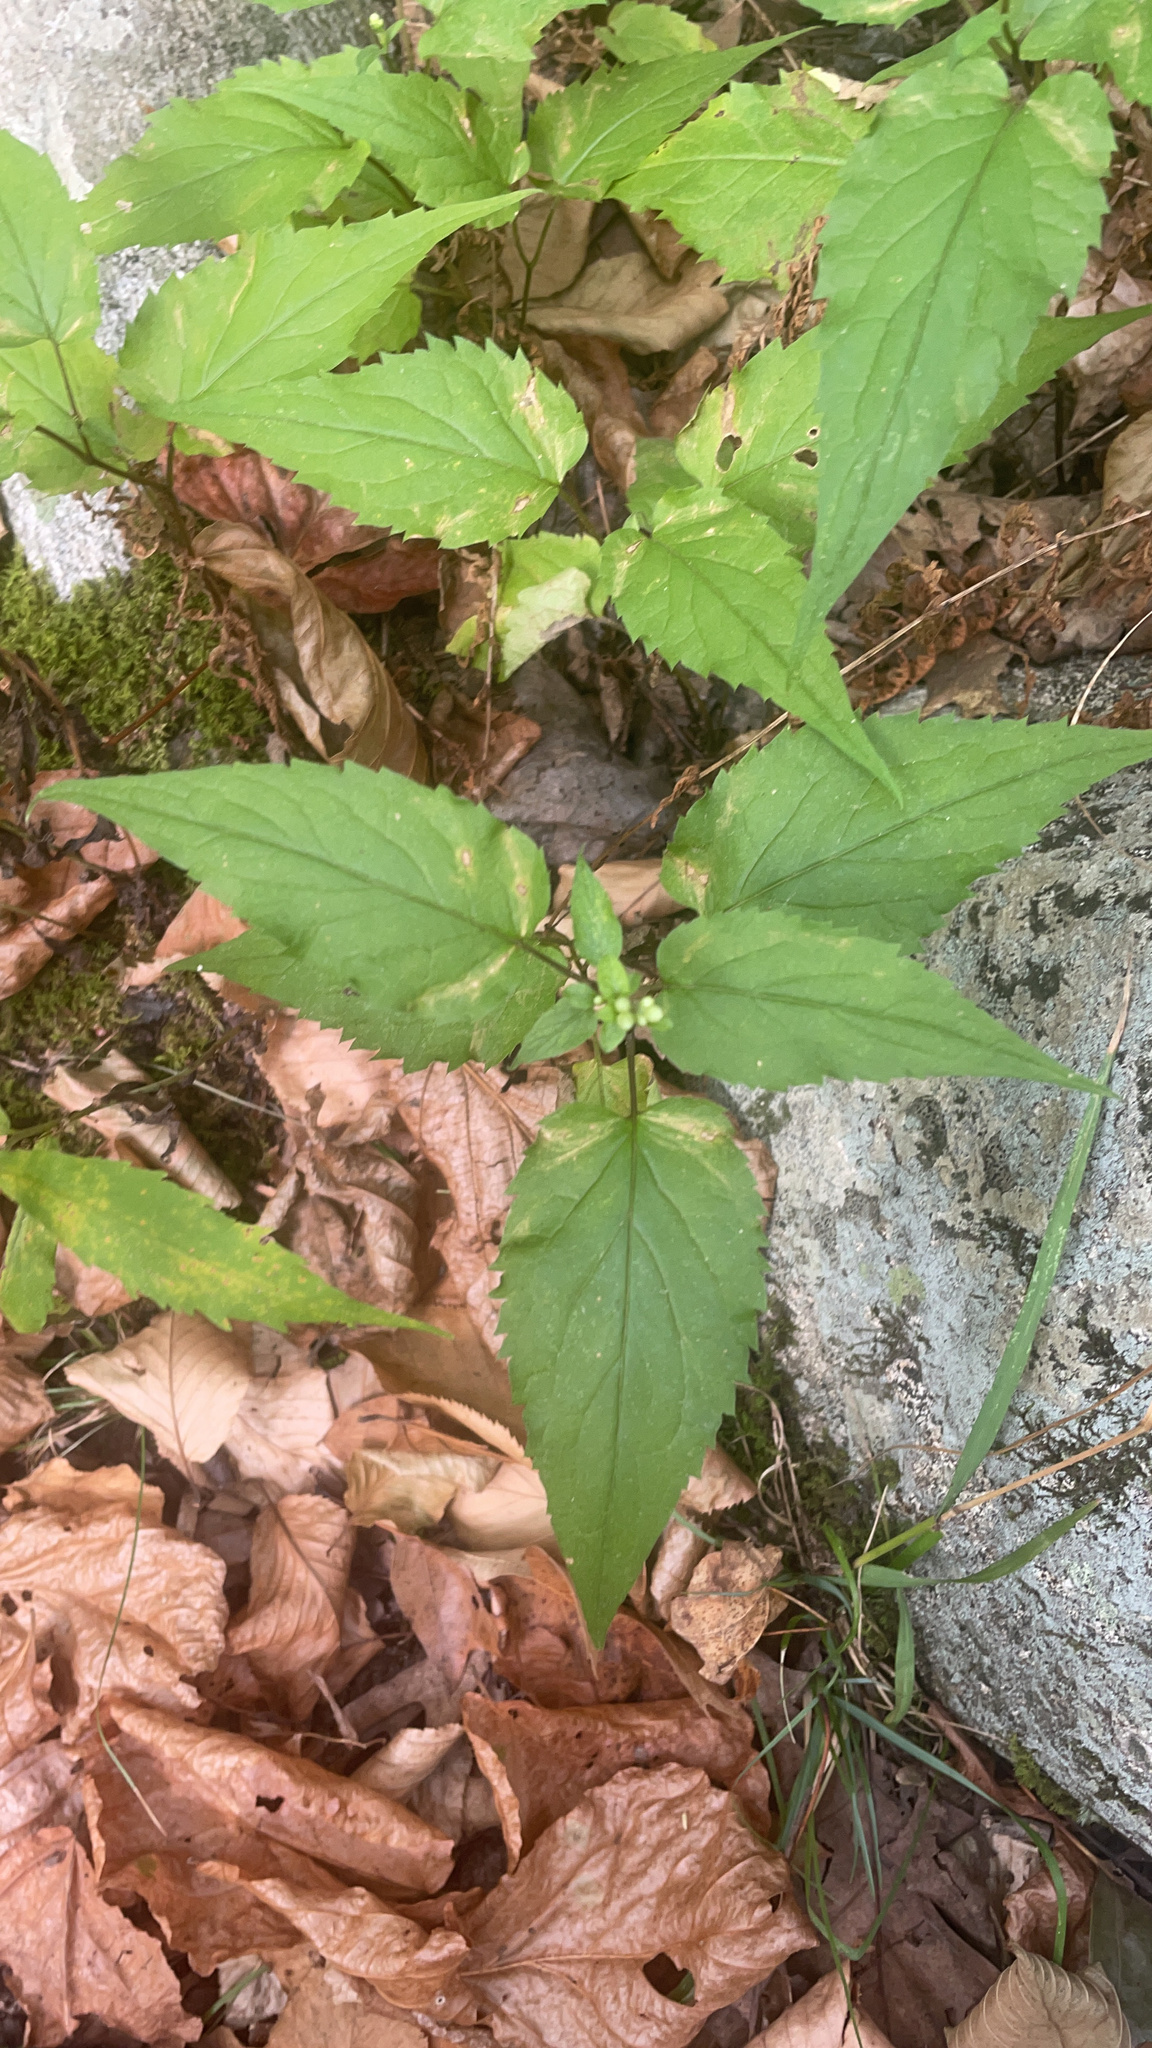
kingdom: Plantae
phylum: Tracheophyta
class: Magnoliopsida
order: Asterales
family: Asteraceae
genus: Eurybia
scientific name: Eurybia divaricata
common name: White wood aster
